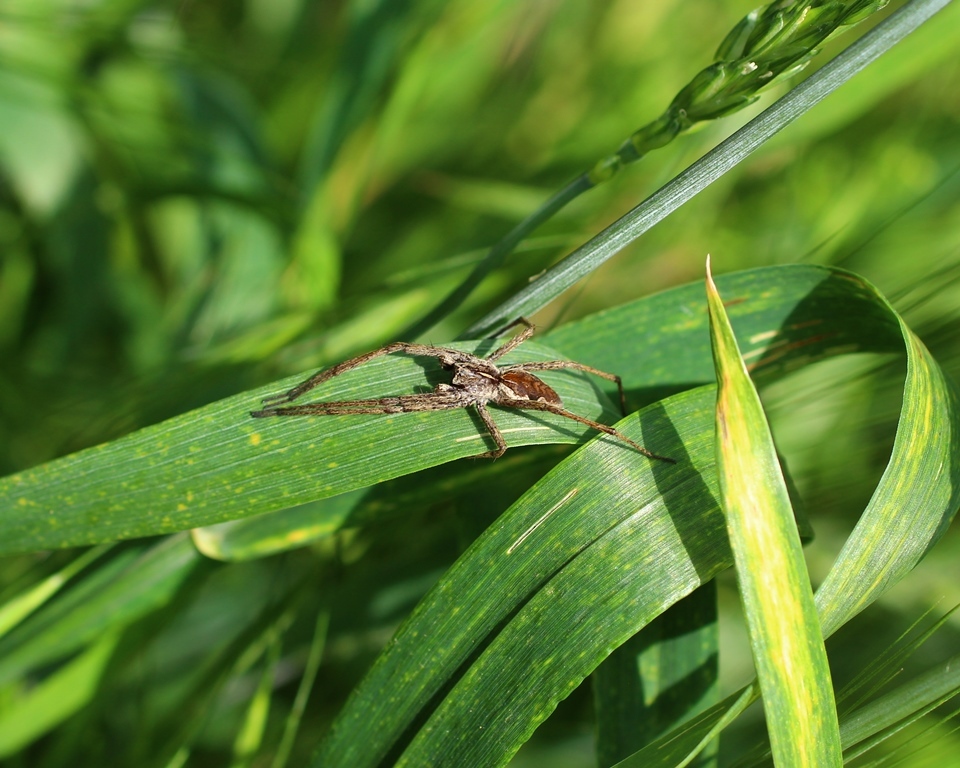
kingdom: Animalia
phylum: Arthropoda
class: Arachnida
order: Araneae
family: Pisauridae
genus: Pisaura
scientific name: Pisaura
